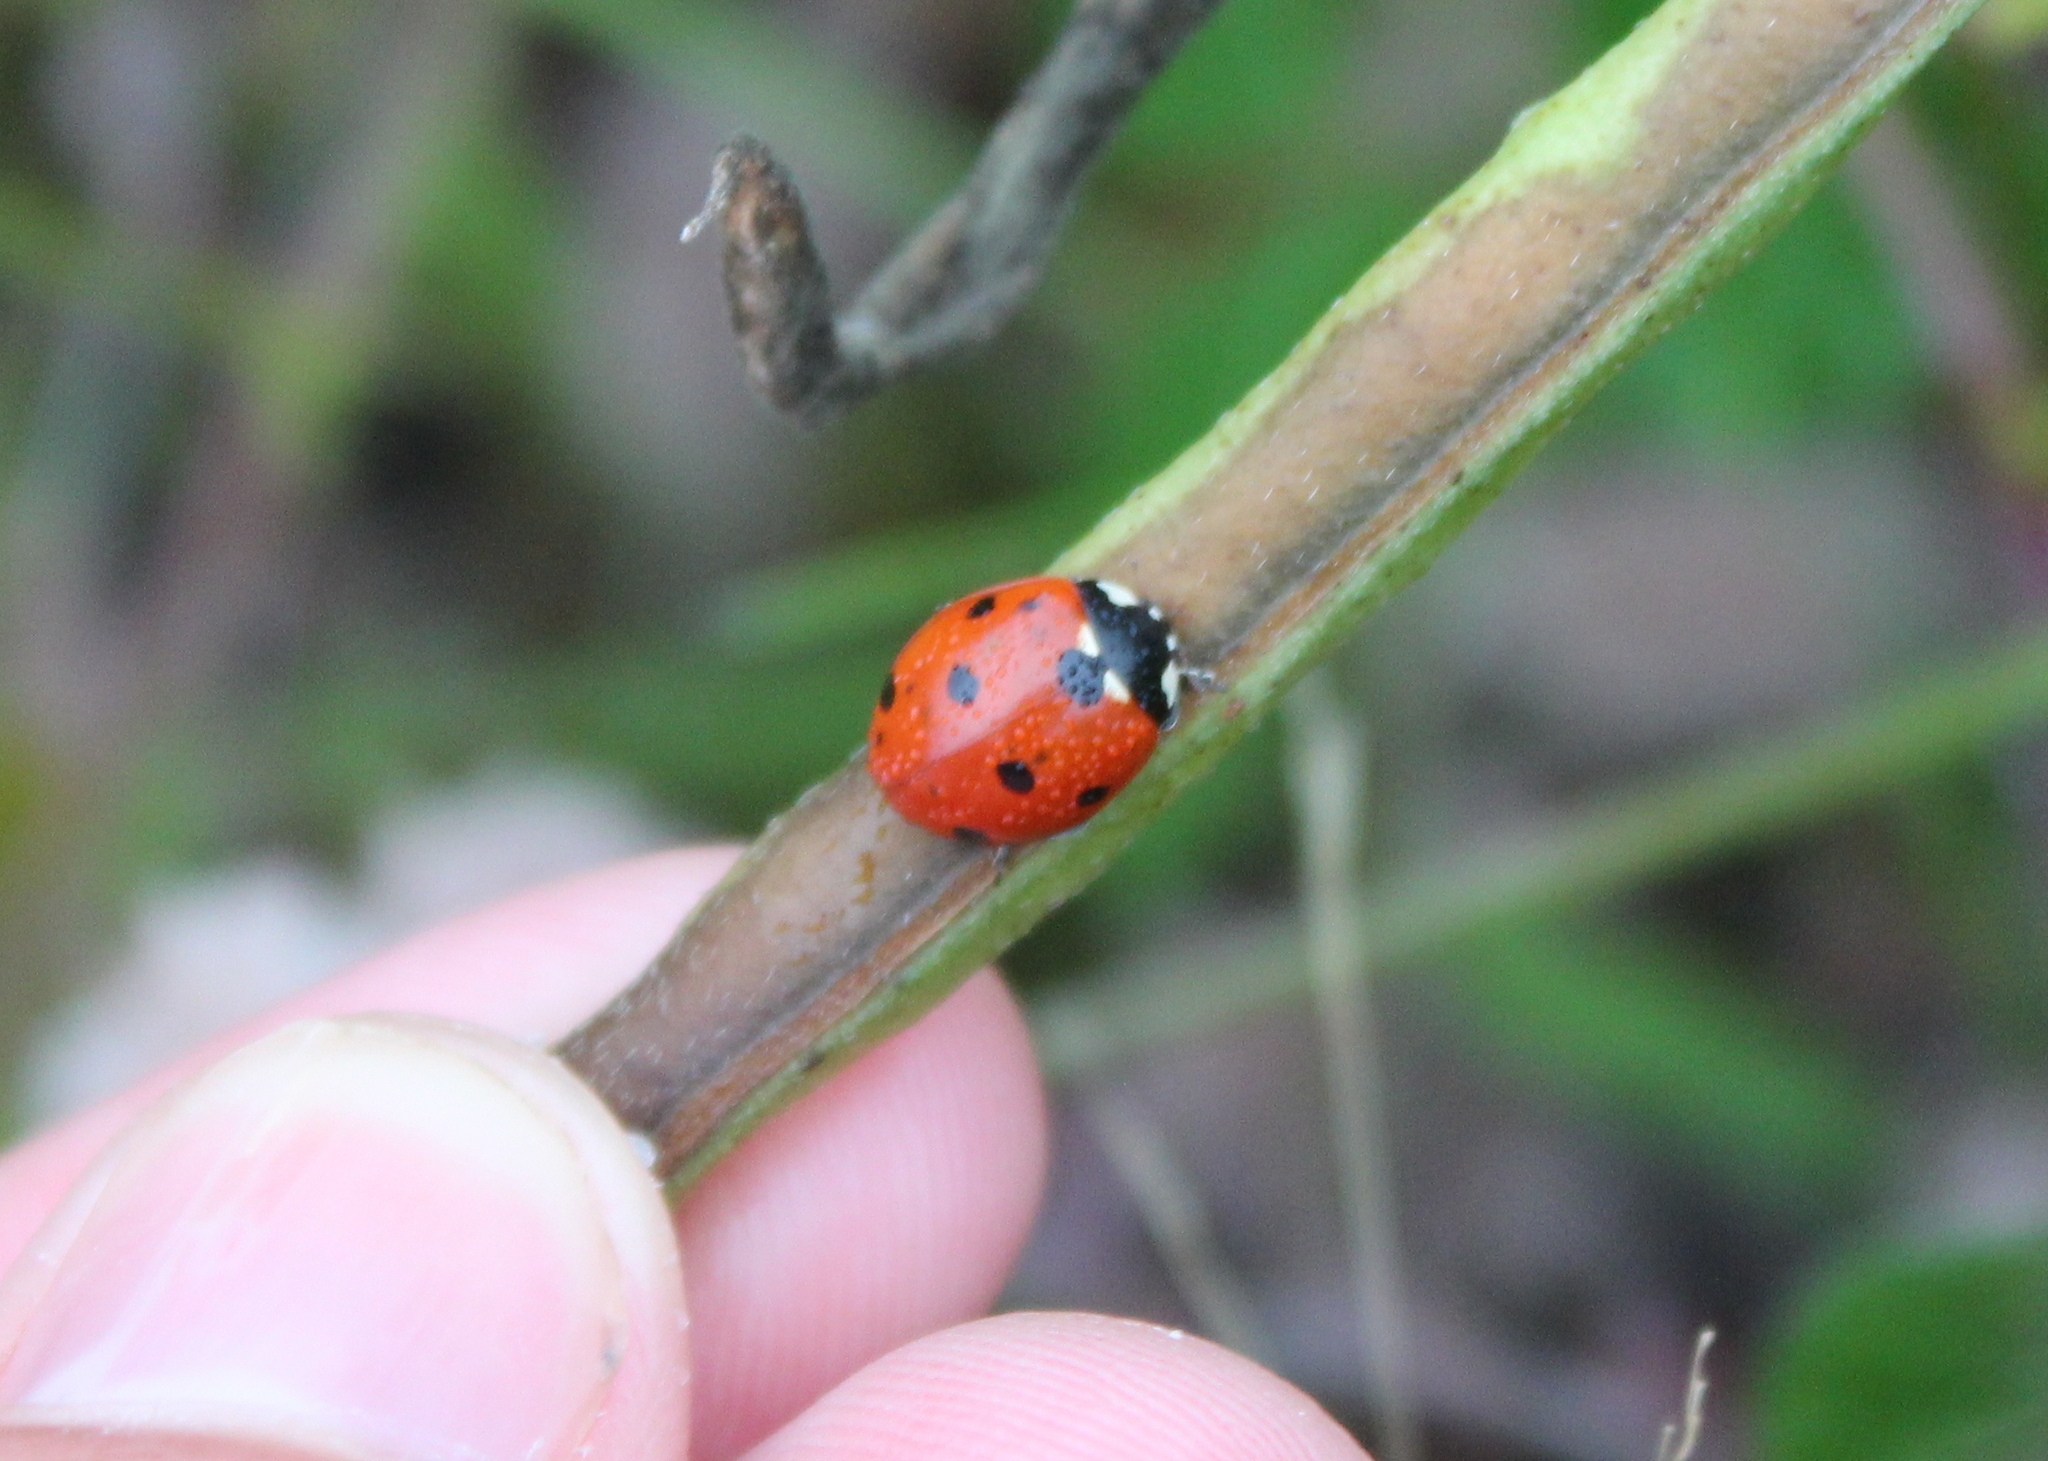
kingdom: Animalia
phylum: Arthropoda
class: Insecta
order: Coleoptera
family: Coccinellidae
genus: Coccinella
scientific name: Coccinella septempunctata
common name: Sevenspotted lady beetle
